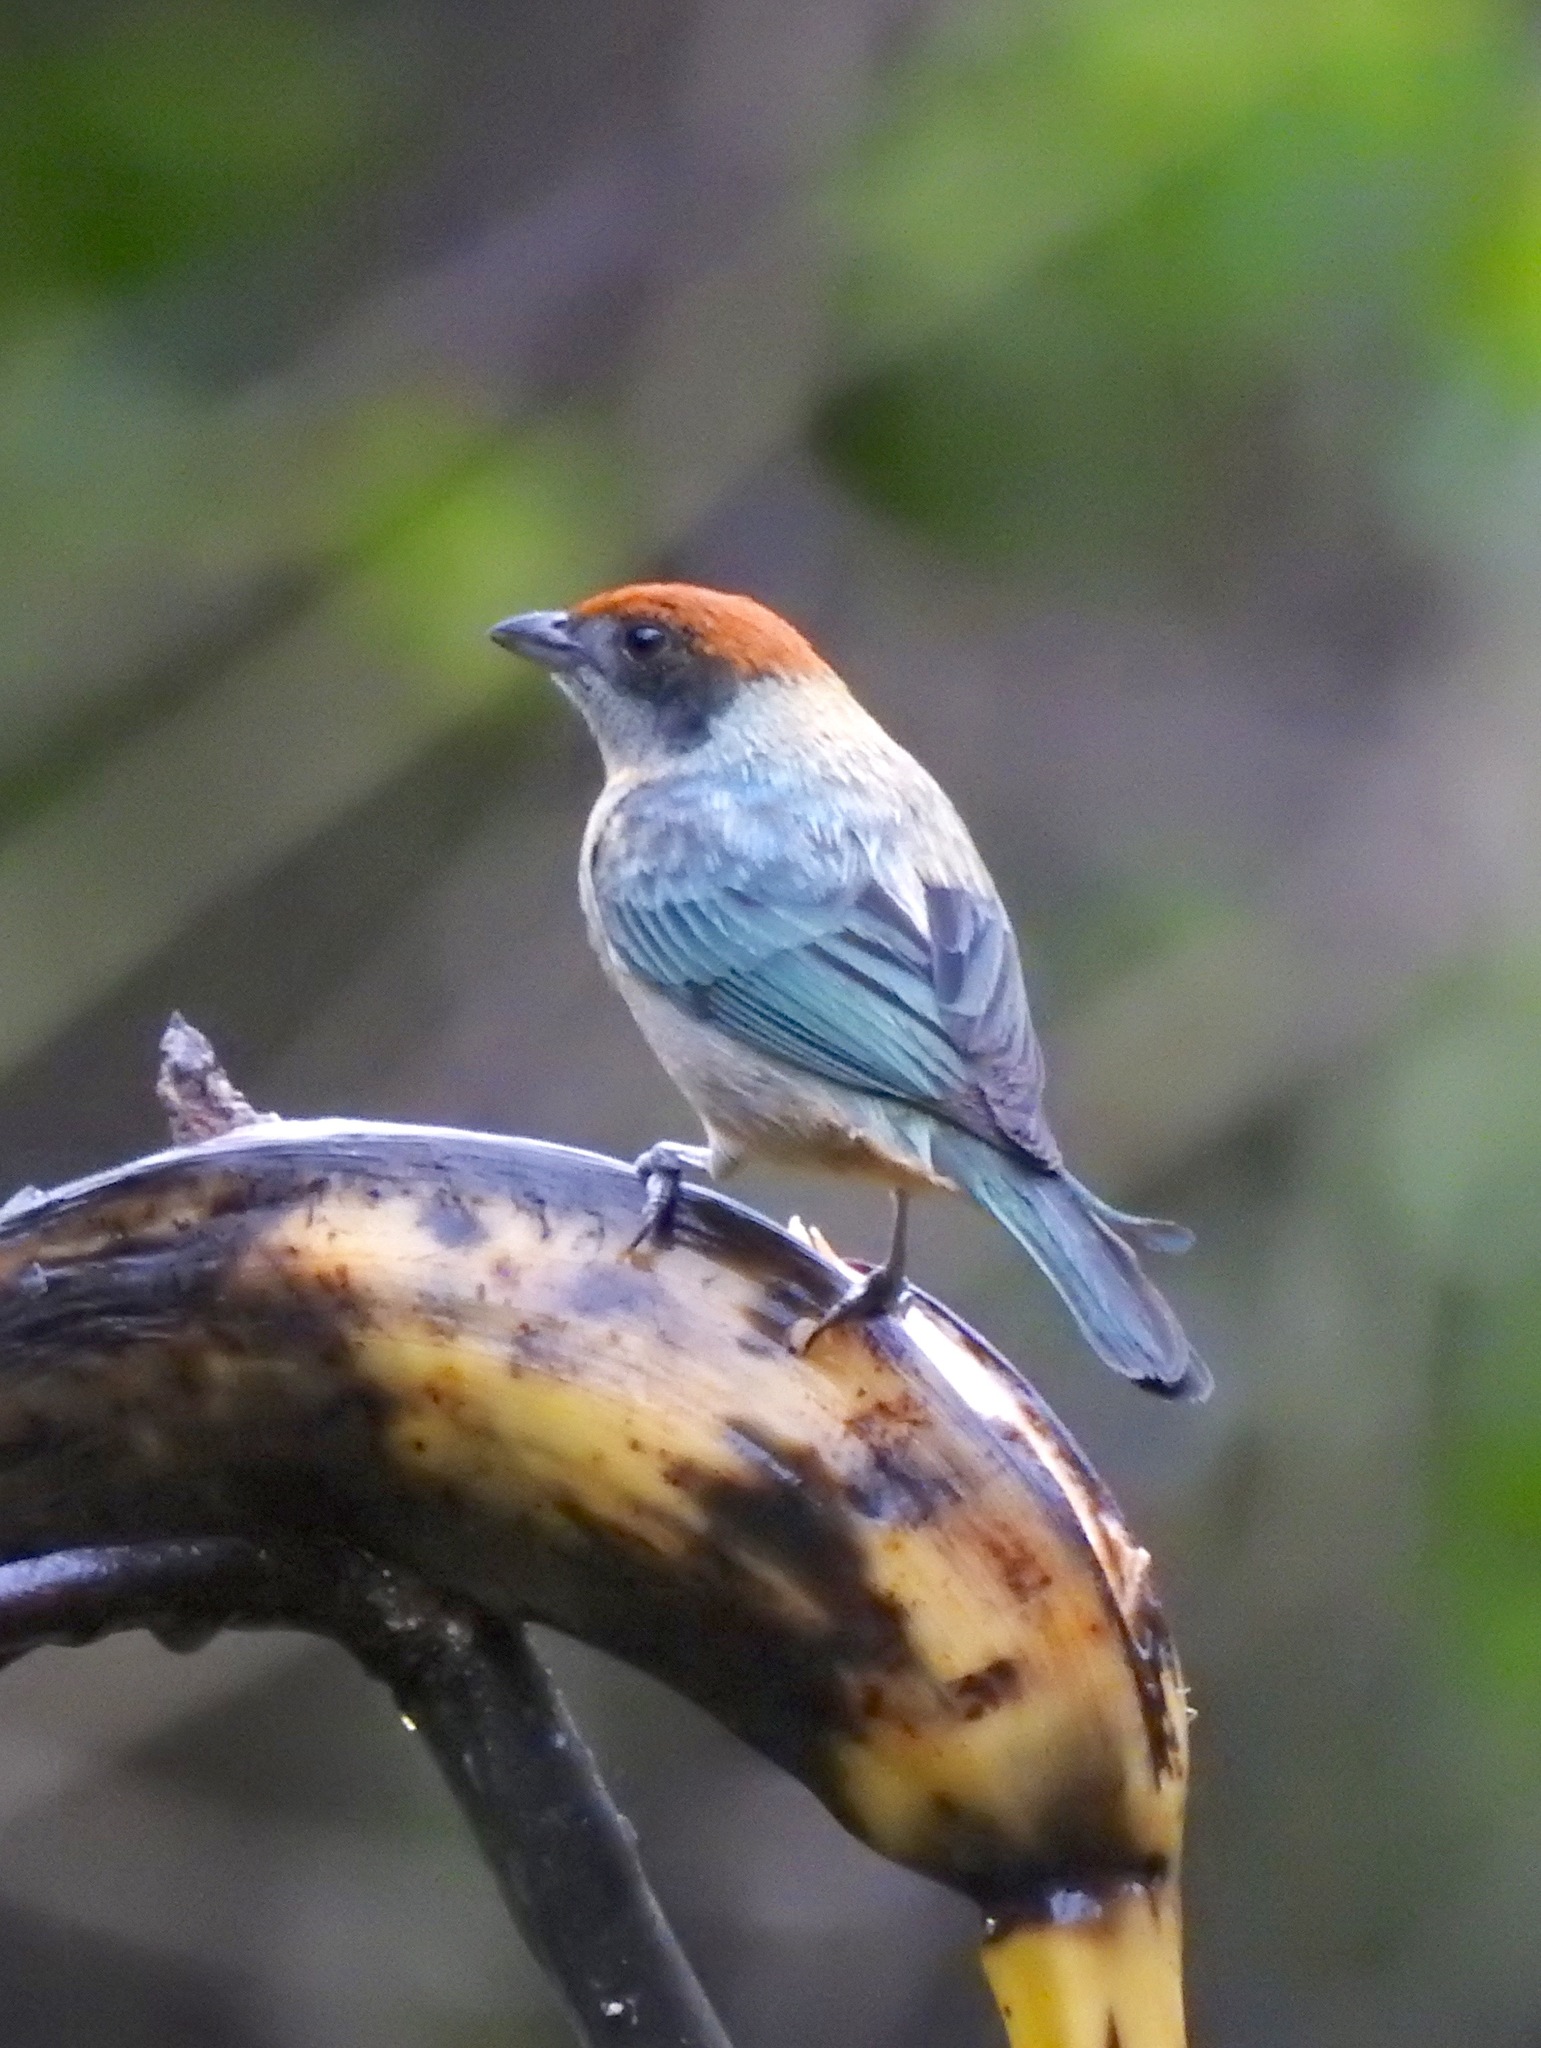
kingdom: Animalia
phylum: Chordata
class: Aves
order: Passeriformes
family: Thraupidae
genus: Stilpnia
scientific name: Stilpnia vitriolina
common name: Scrub tanager
